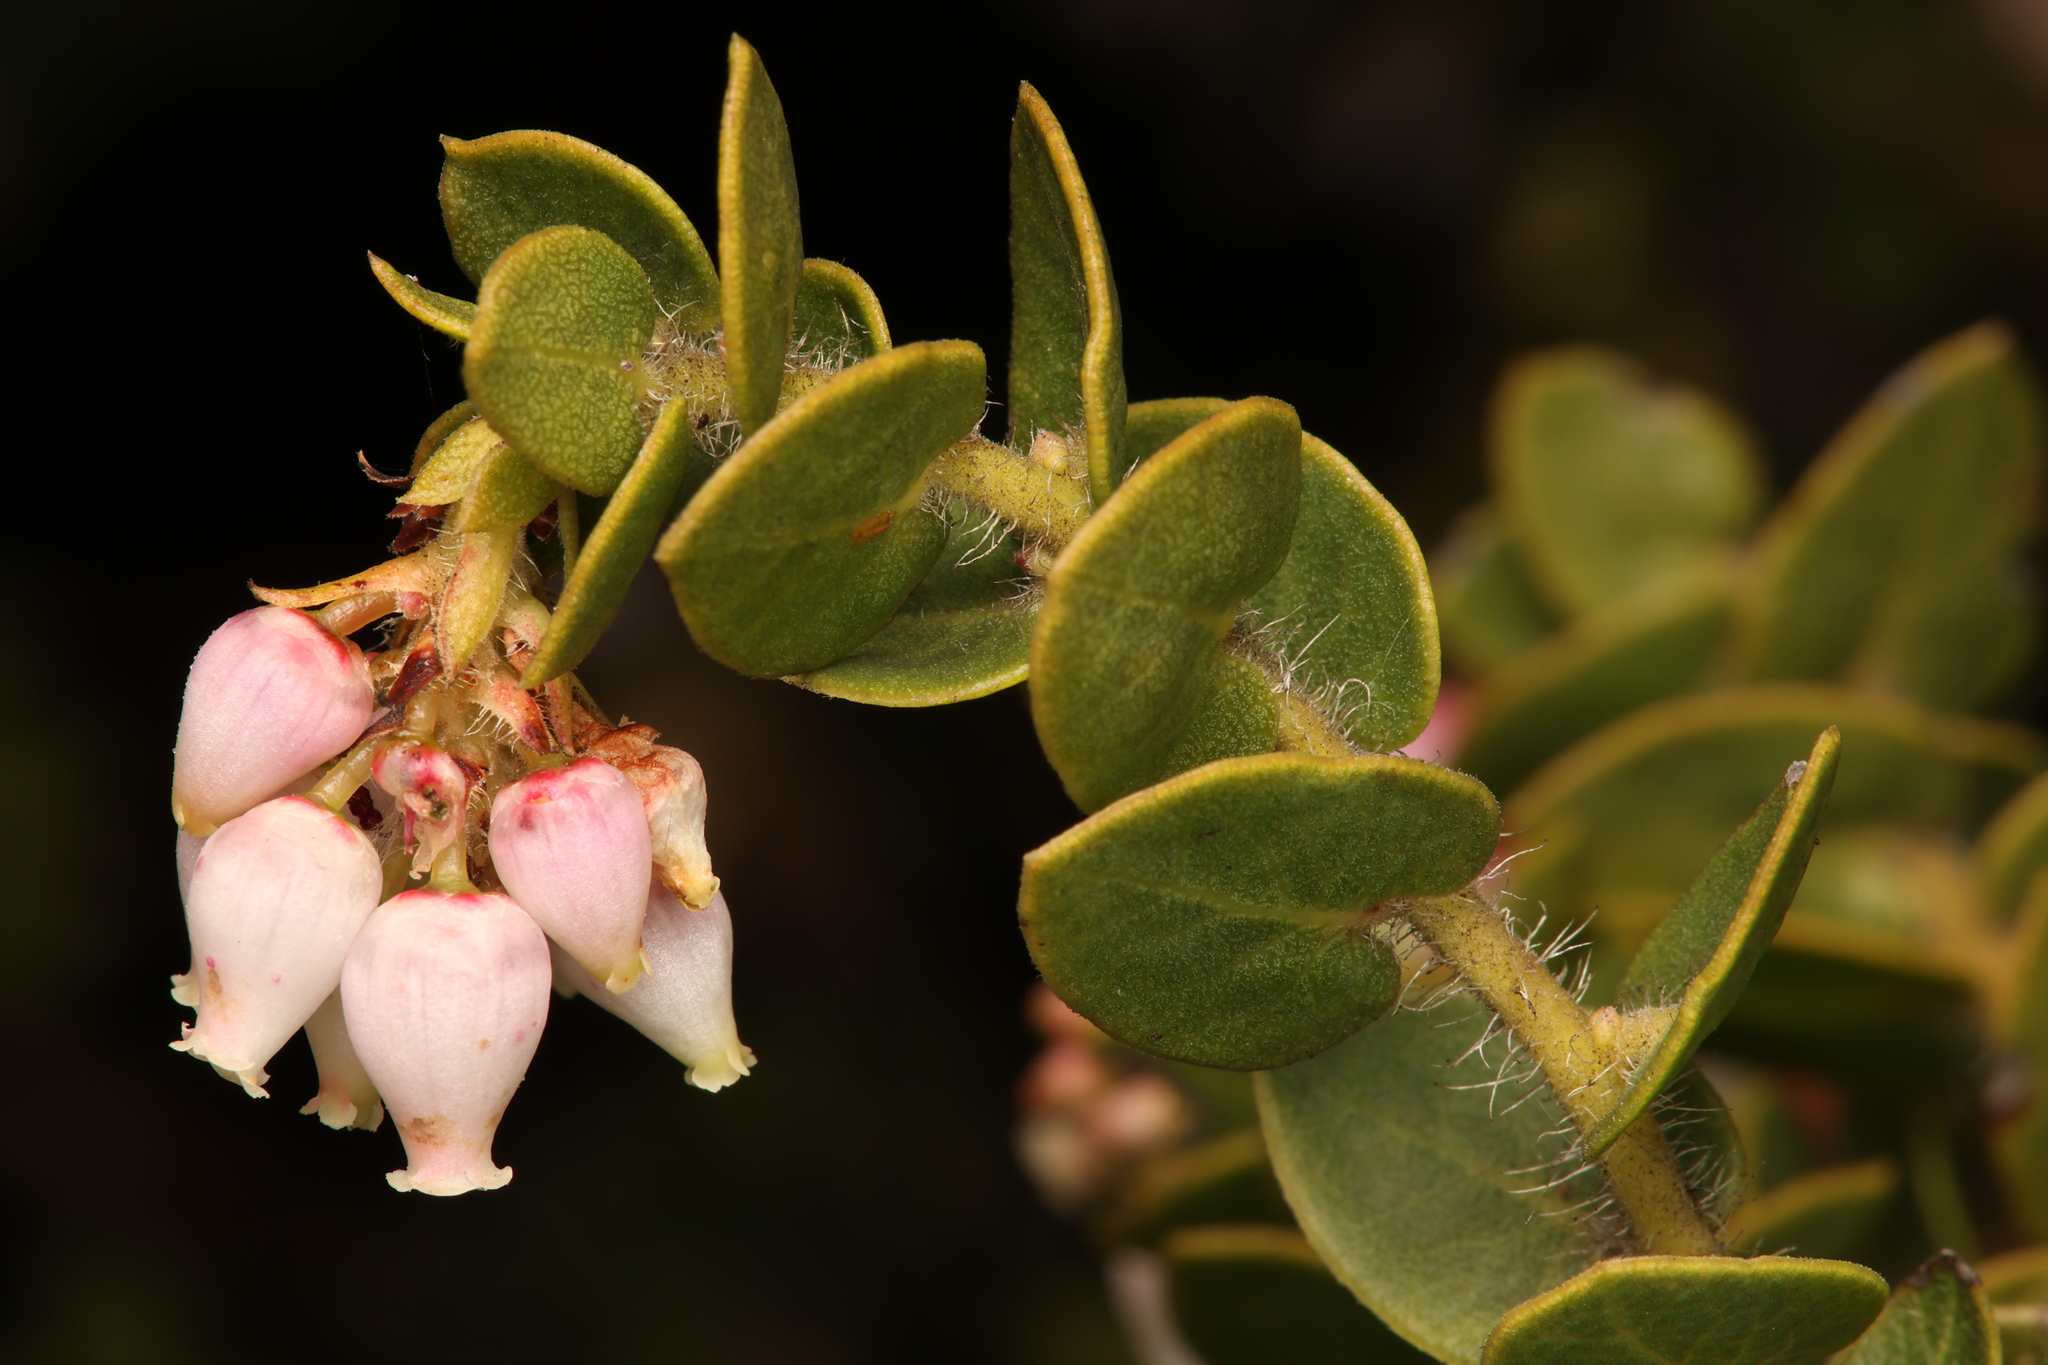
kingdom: Plantae
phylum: Tracheophyta
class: Magnoliopsida
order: Ericales
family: Ericaceae
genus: Arctostaphylos
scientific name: Arctostaphylos purissima
